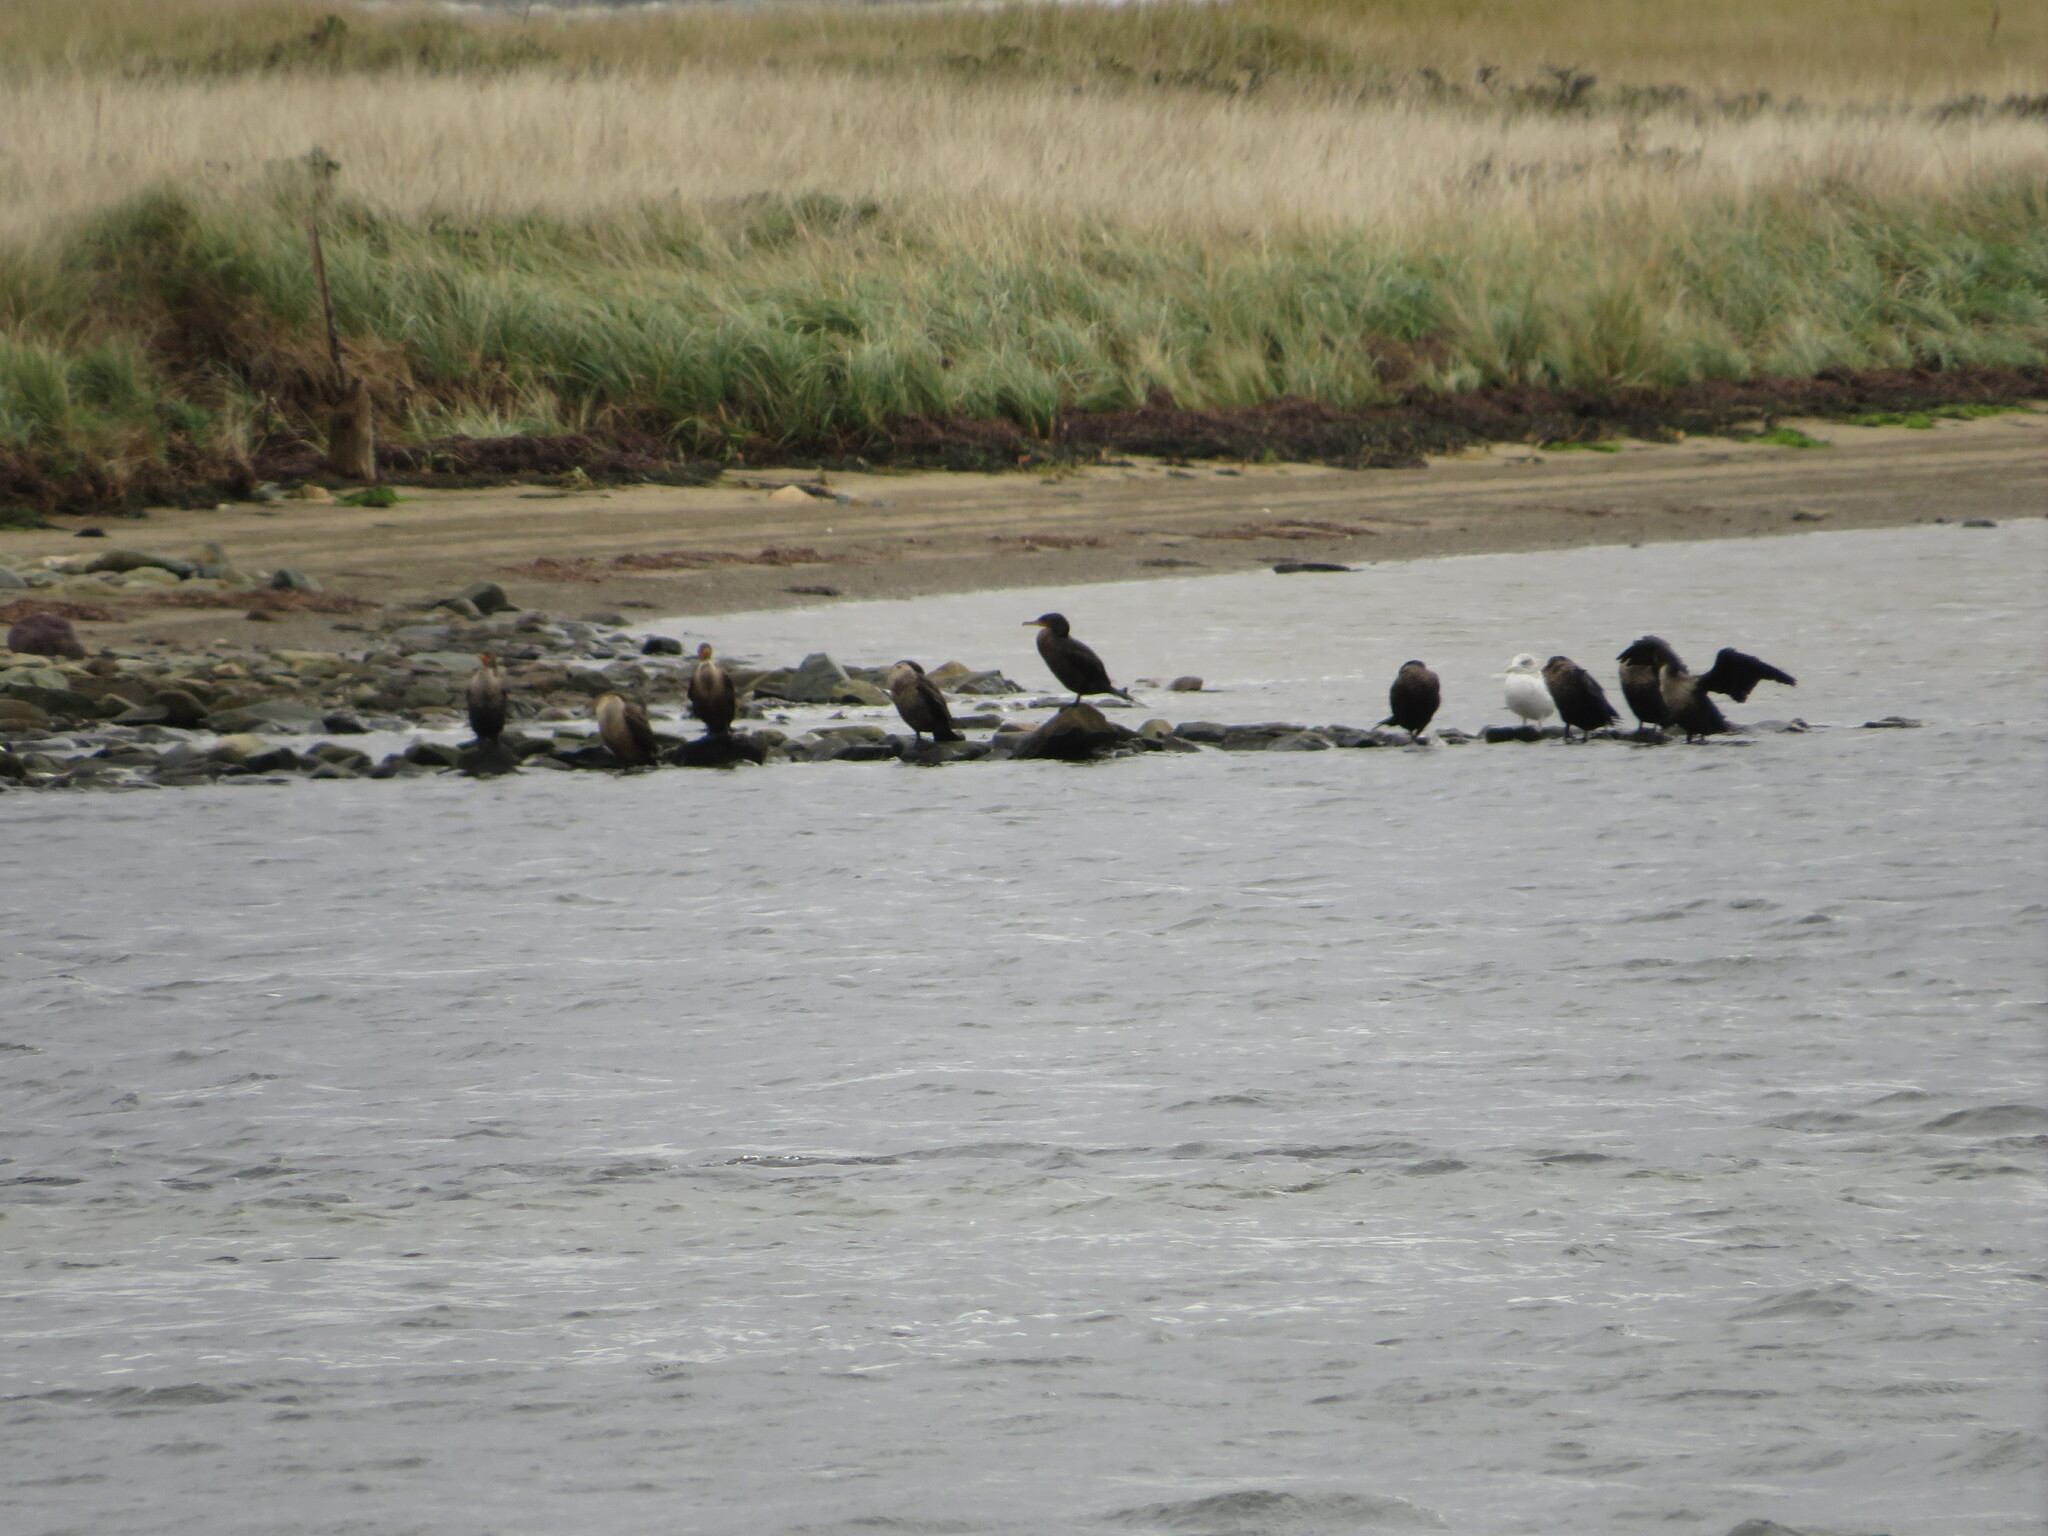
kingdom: Animalia
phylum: Chordata
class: Aves
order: Suliformes
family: Phalacrocoracidae
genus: Phalacrocorax
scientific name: Phalacrocorax auritus
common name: Double-crested cormorant
